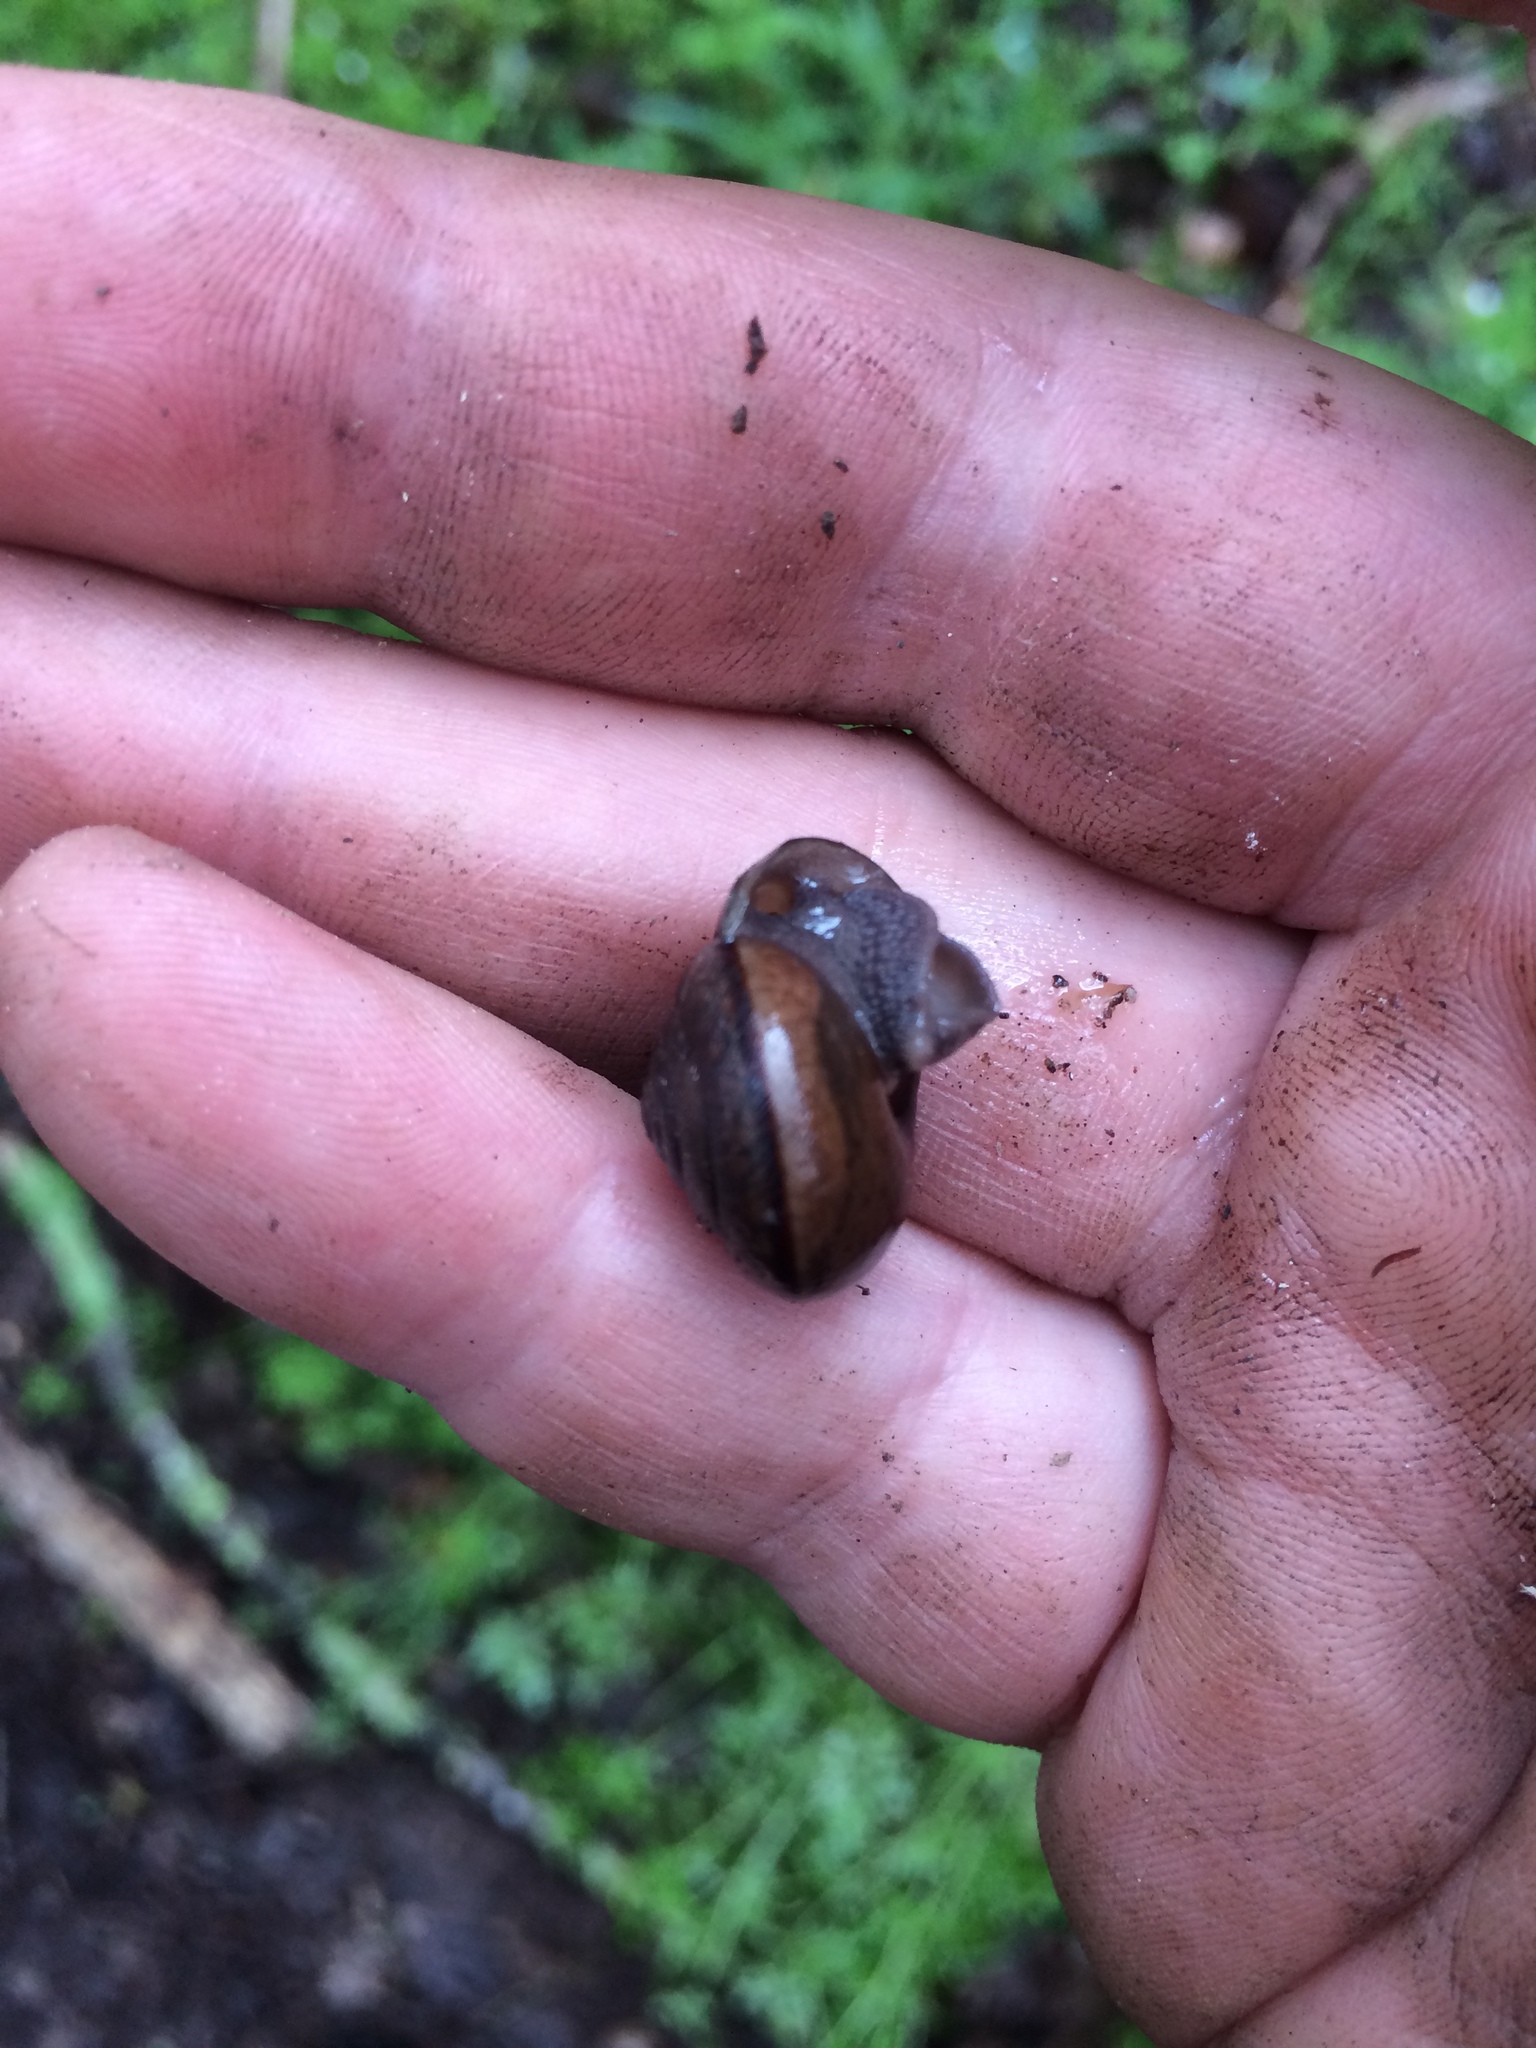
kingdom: Animalia
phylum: Mollusca
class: Gastropoda
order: Stylommatophora
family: Xanthonychidae
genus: Helminthoglypta
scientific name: Helminthoglypta sonoma
